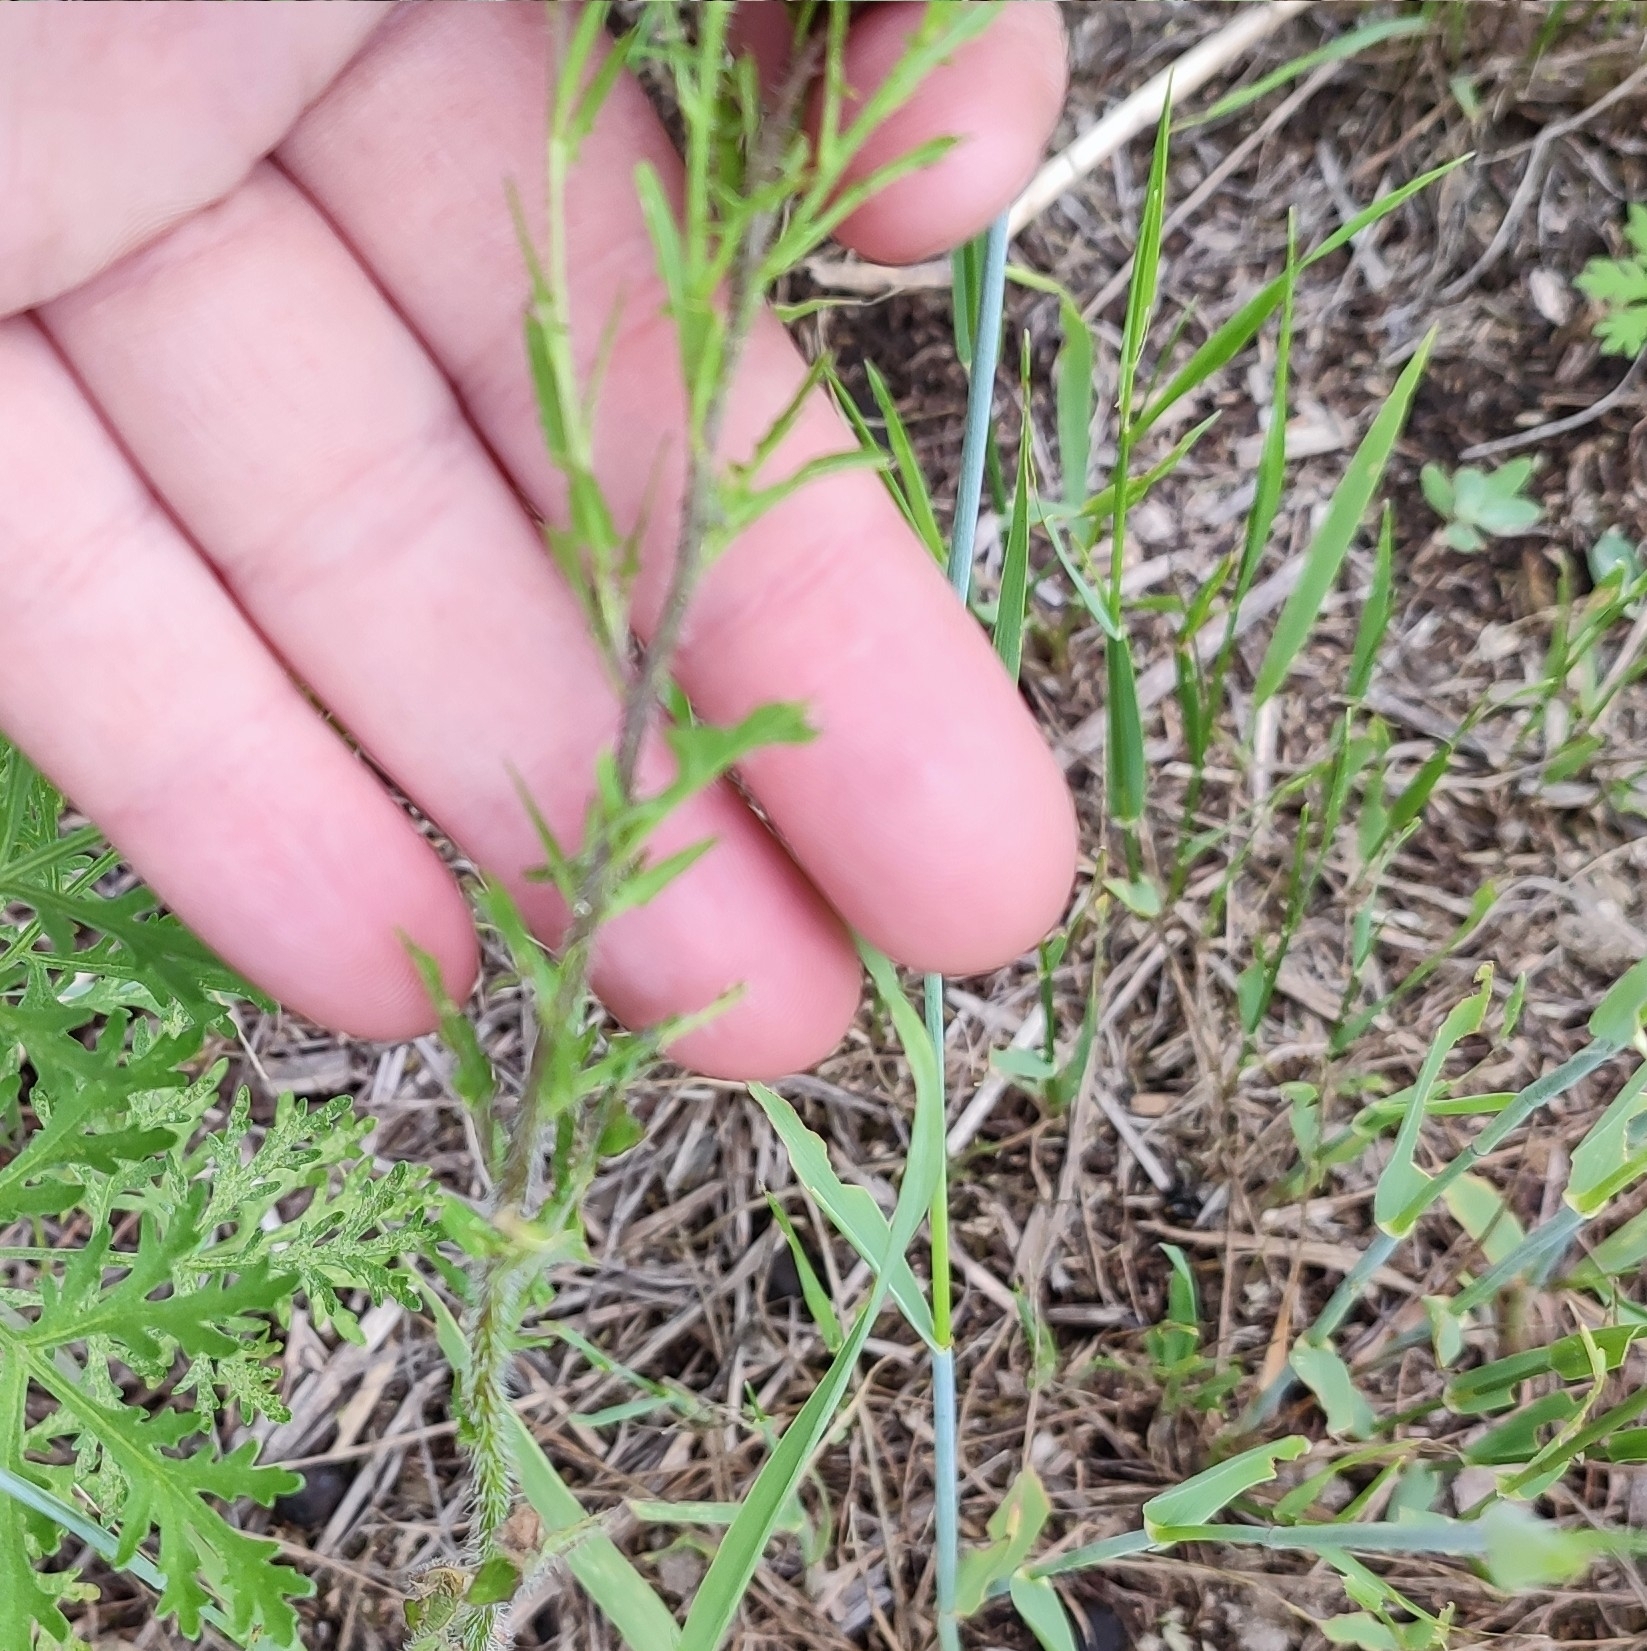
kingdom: Plantae
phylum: Tracheophyta
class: Magnoliopsida
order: Brassicales
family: Brassicaceae
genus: Sisymbrium
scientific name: Sisymbrium loeselii
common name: False london-rocket
